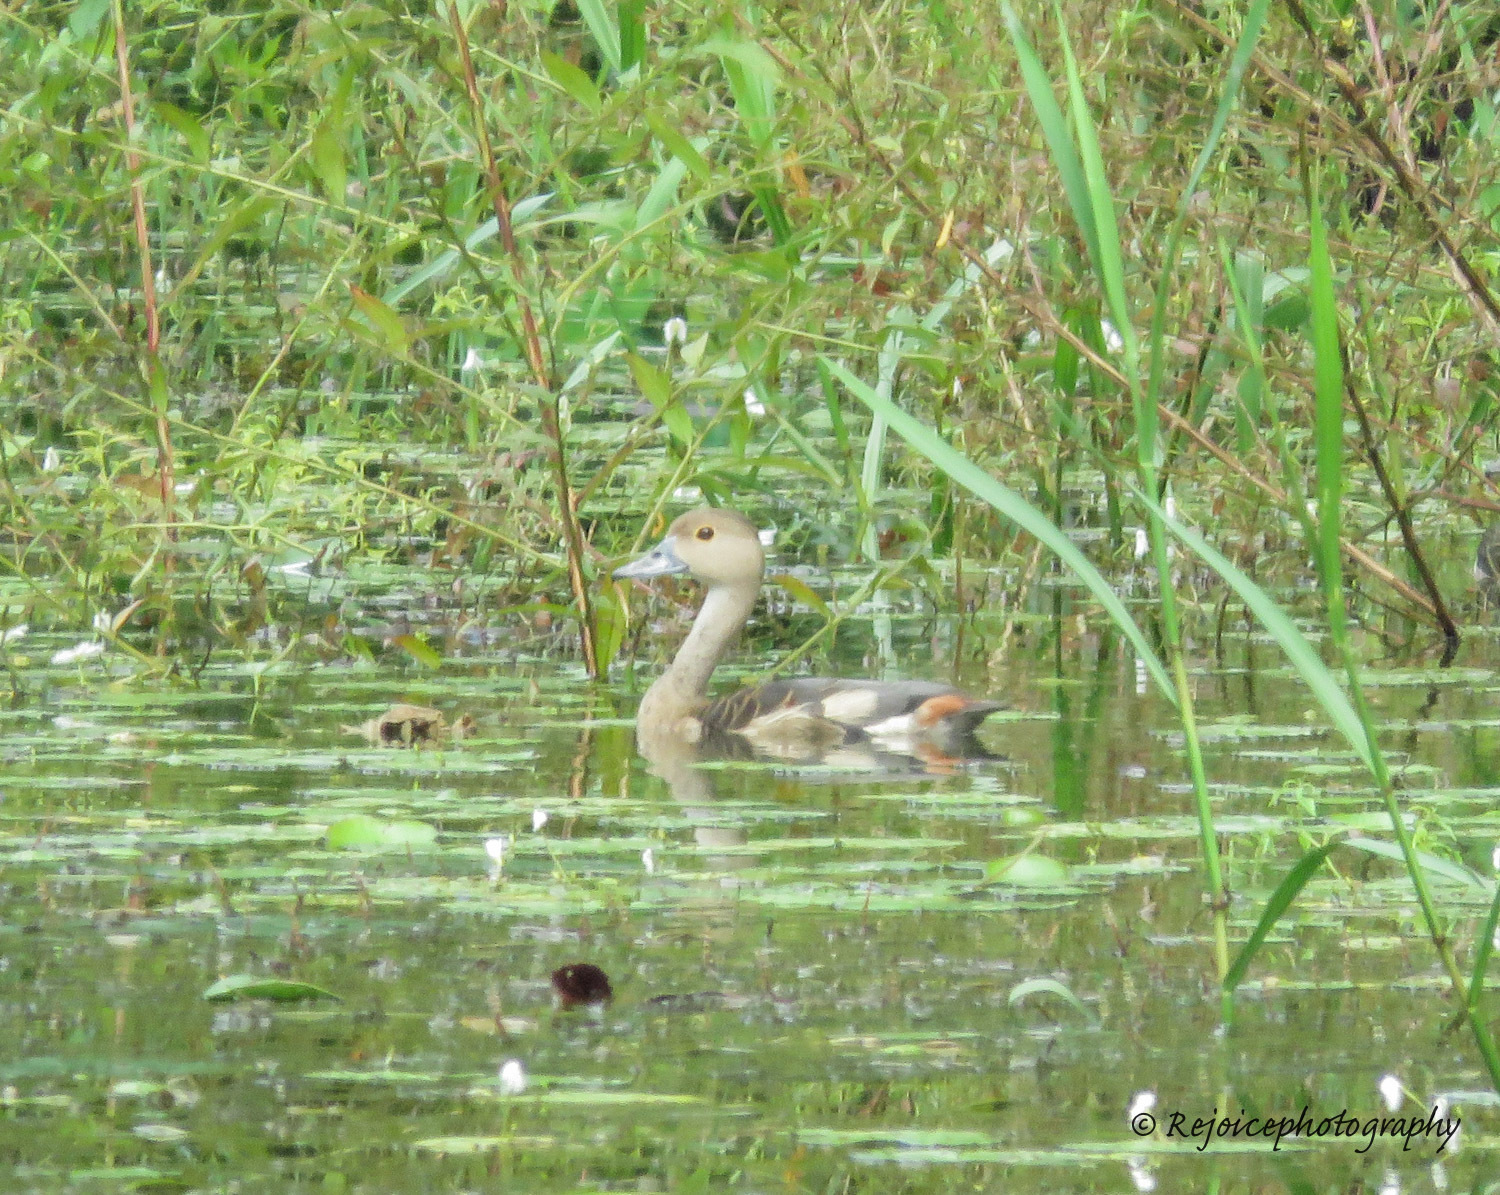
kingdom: Animalia
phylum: Chordata
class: Aves
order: Anseriformes
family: Anatidae
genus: Dendrocygna
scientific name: Dendrocygna javanica
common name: Lesser whistling-duck
